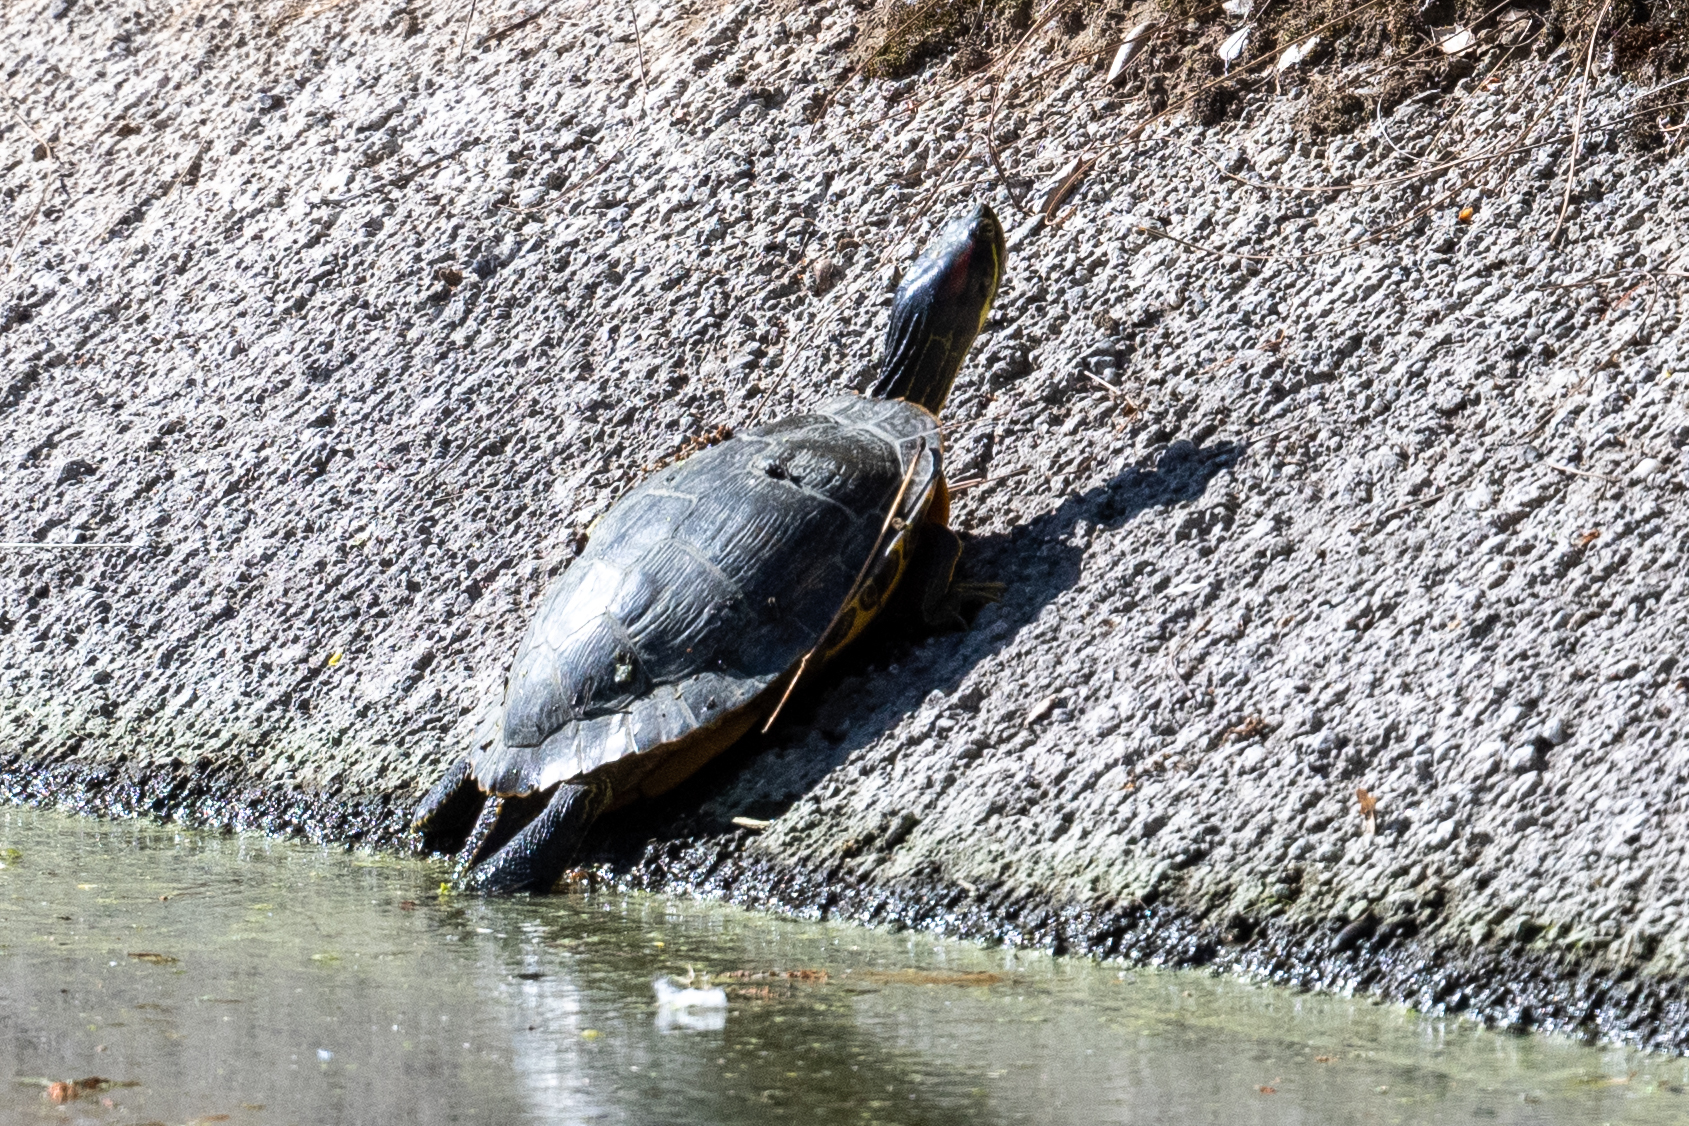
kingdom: Animalia
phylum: Chordata
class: Testudines
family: Emydidae
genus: Trachemys
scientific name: Trachemys scripta
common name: Slider
